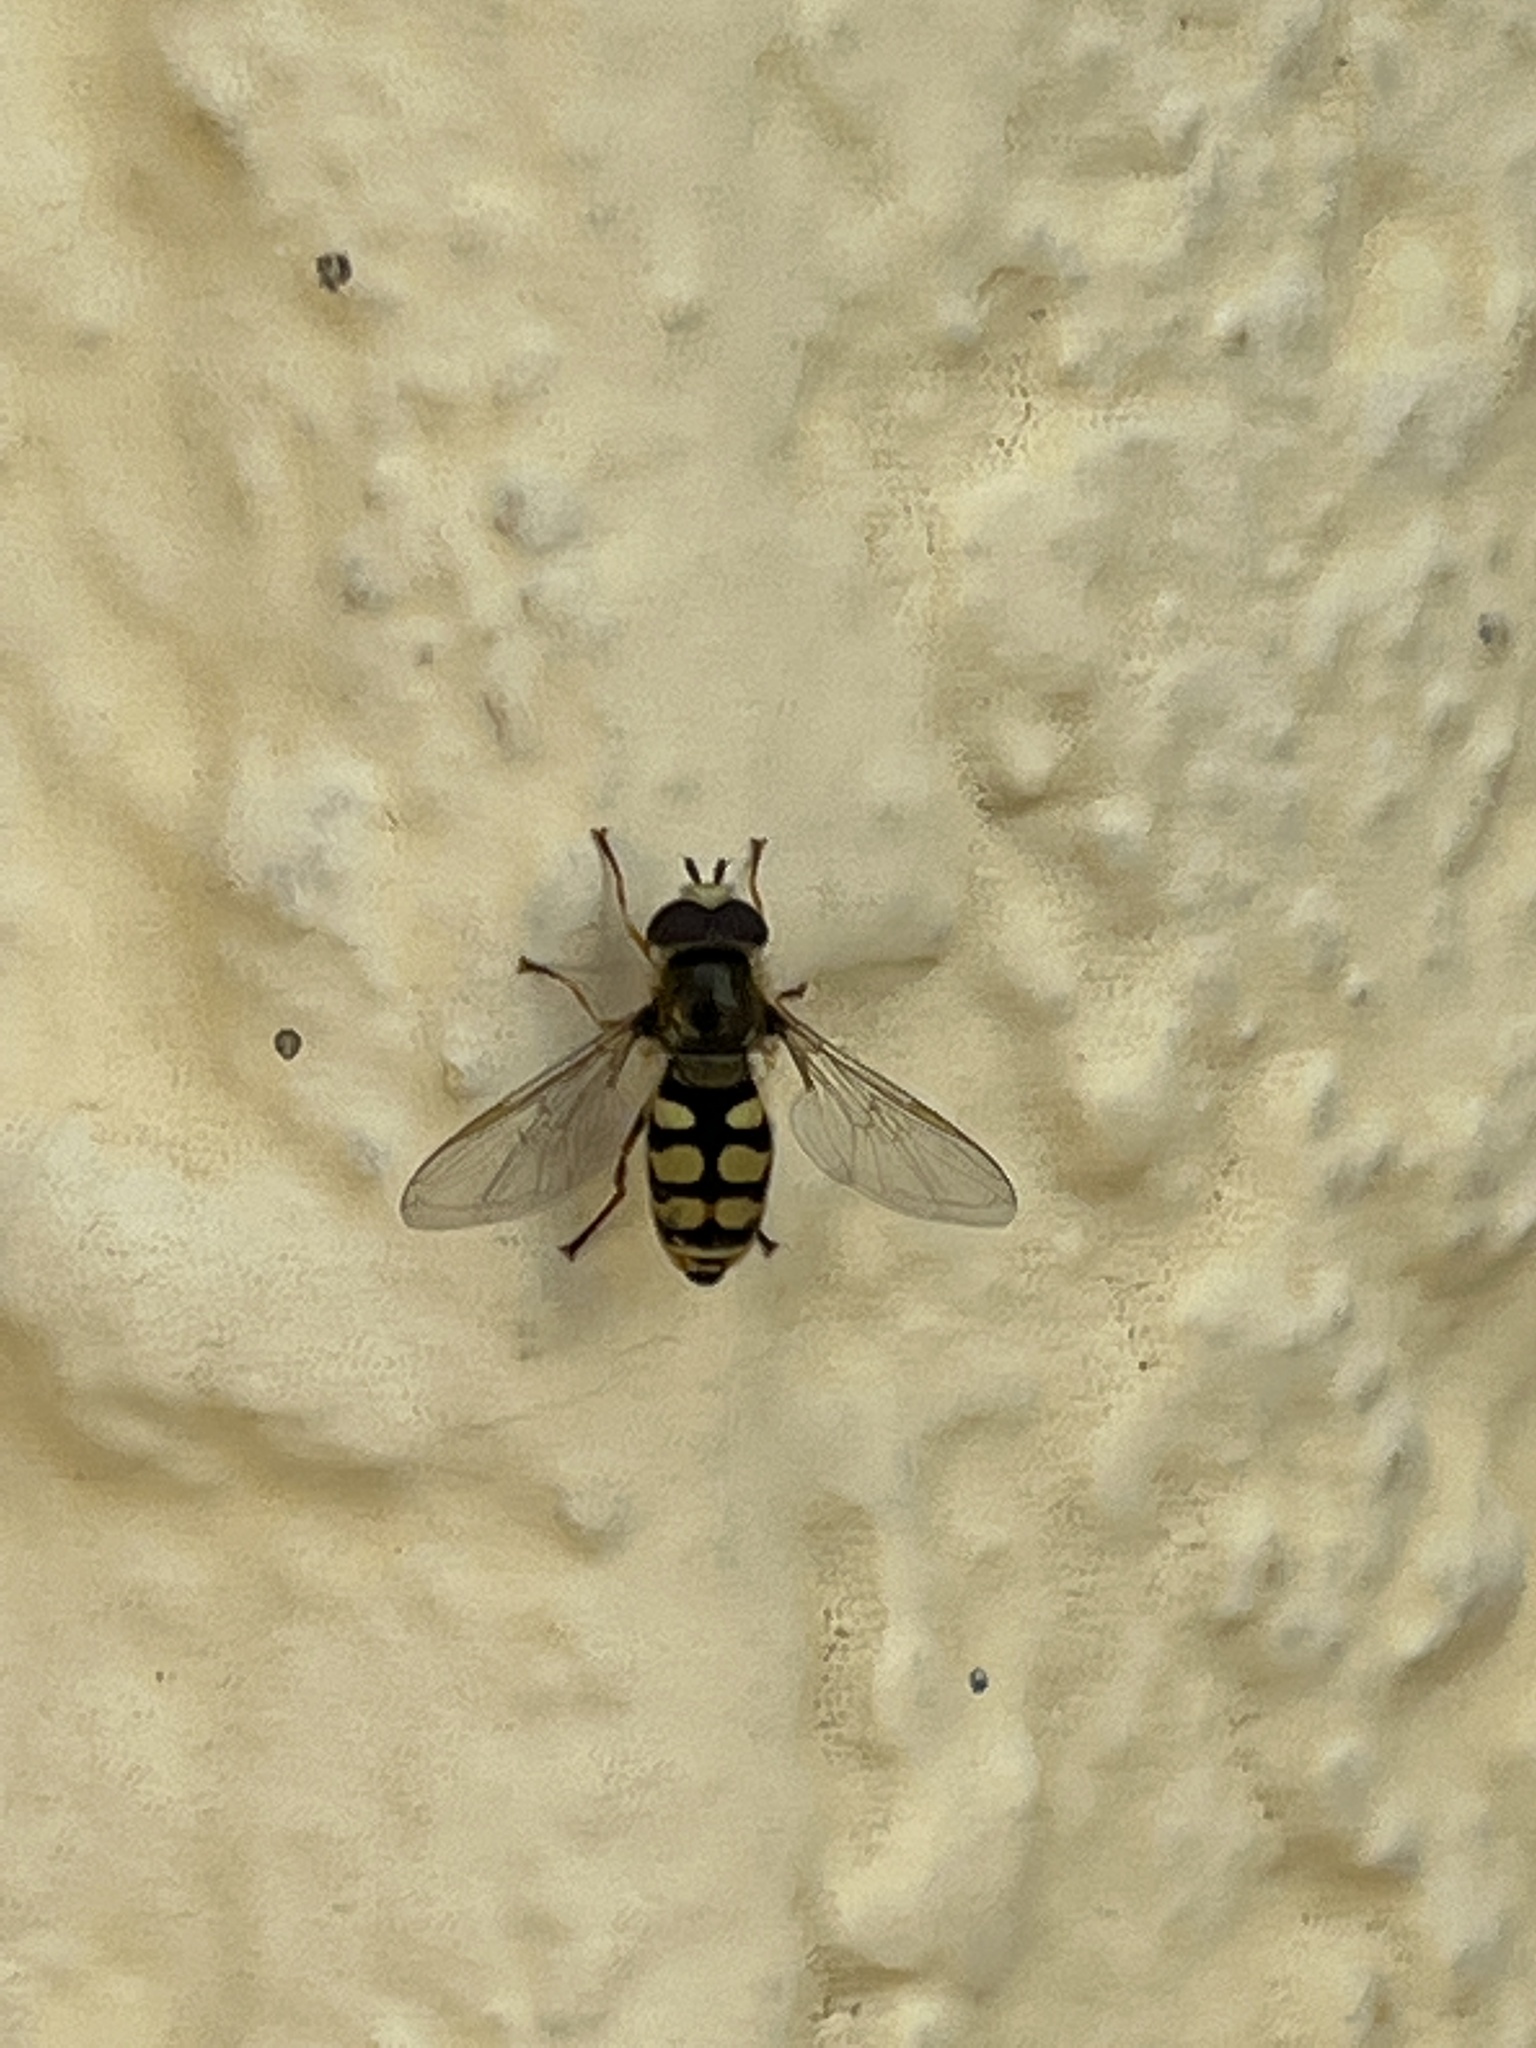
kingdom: Animalia
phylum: Arthropoda
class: Insecta
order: Diptera
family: Syrphidae
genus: Eupeodes
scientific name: Eupeodes corollae
